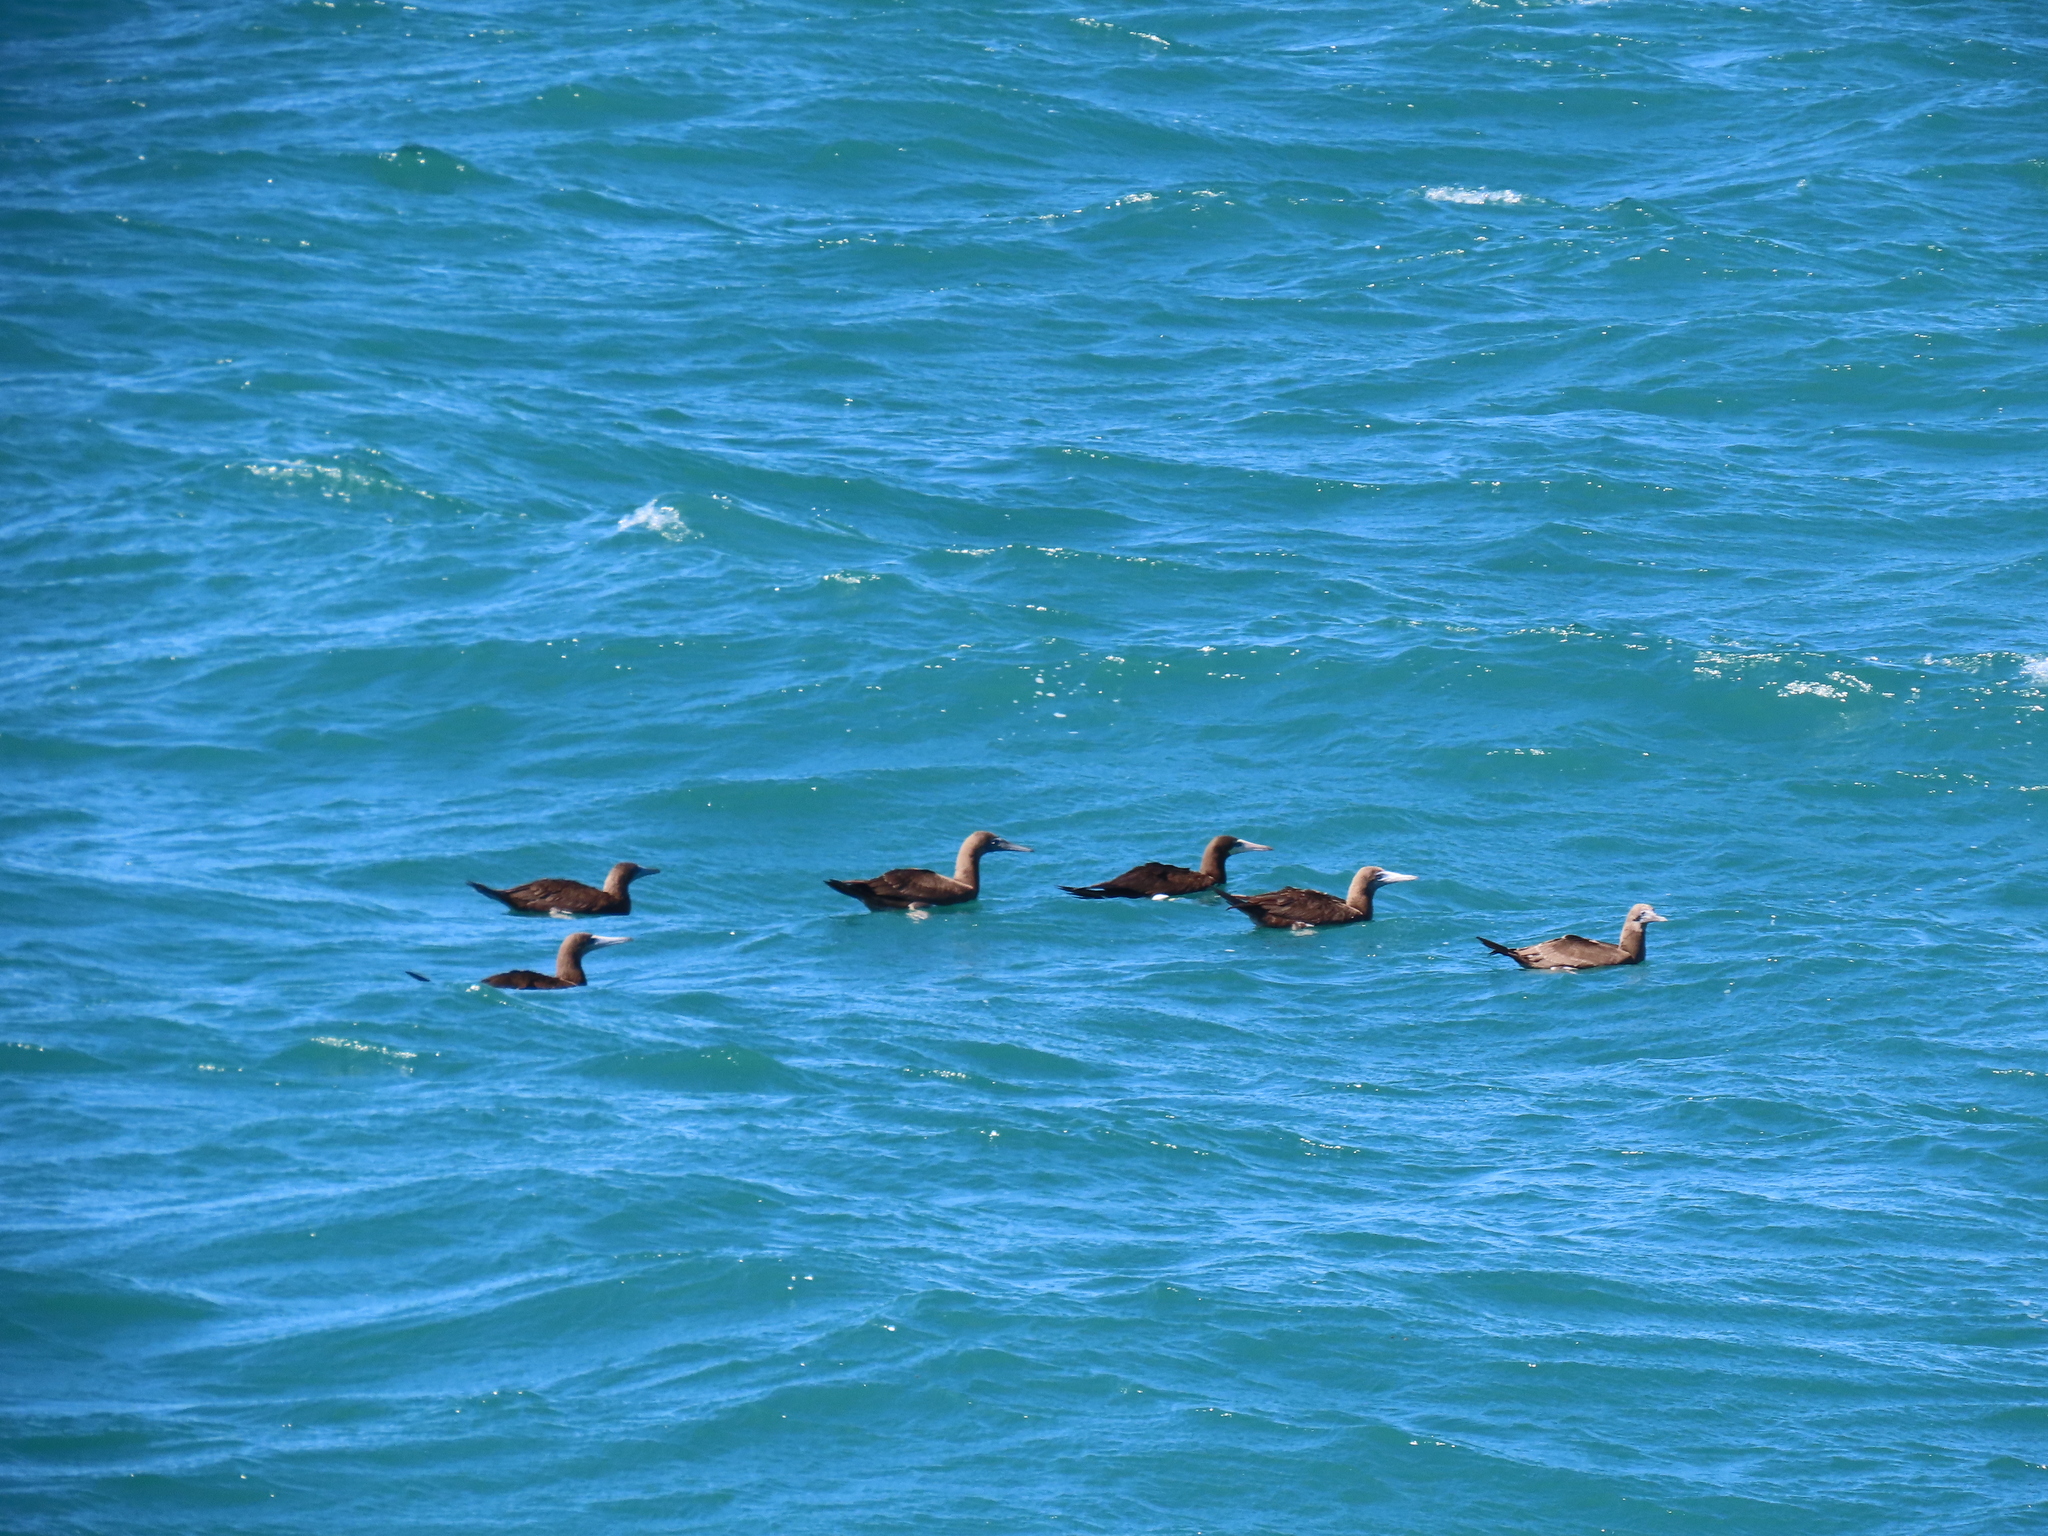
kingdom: Animalia
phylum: Chordata
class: Aves
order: Suliformes
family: Sulidae
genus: Sula
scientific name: Sula leucogaster
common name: Brown booby
